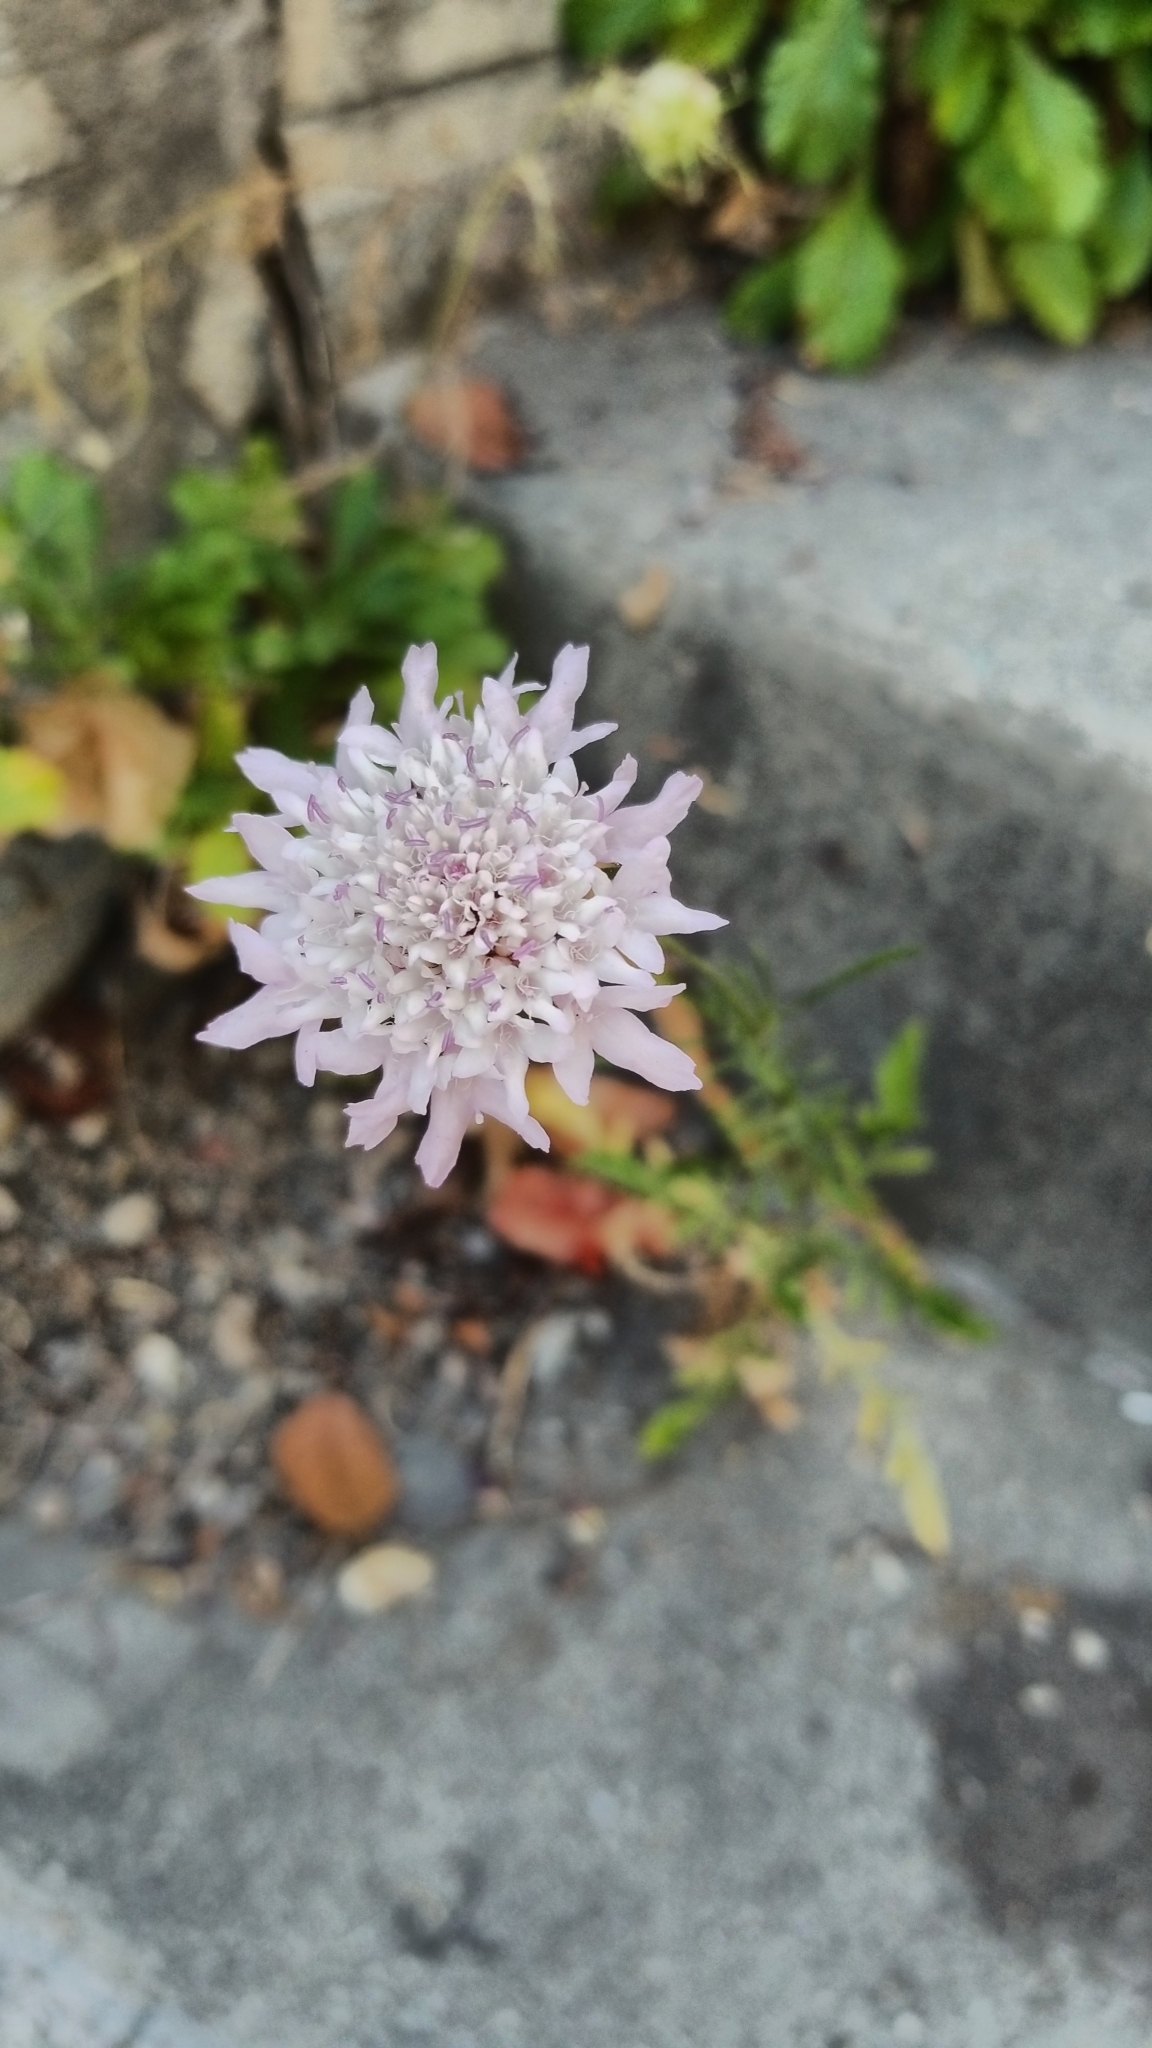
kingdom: Plantae
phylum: Tracheophyta
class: Magnoliopsida
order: Dipsacales
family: Caprifoliaceae
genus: Sixalix
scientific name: Sixalix atropurpurea
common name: Sweet scabious
